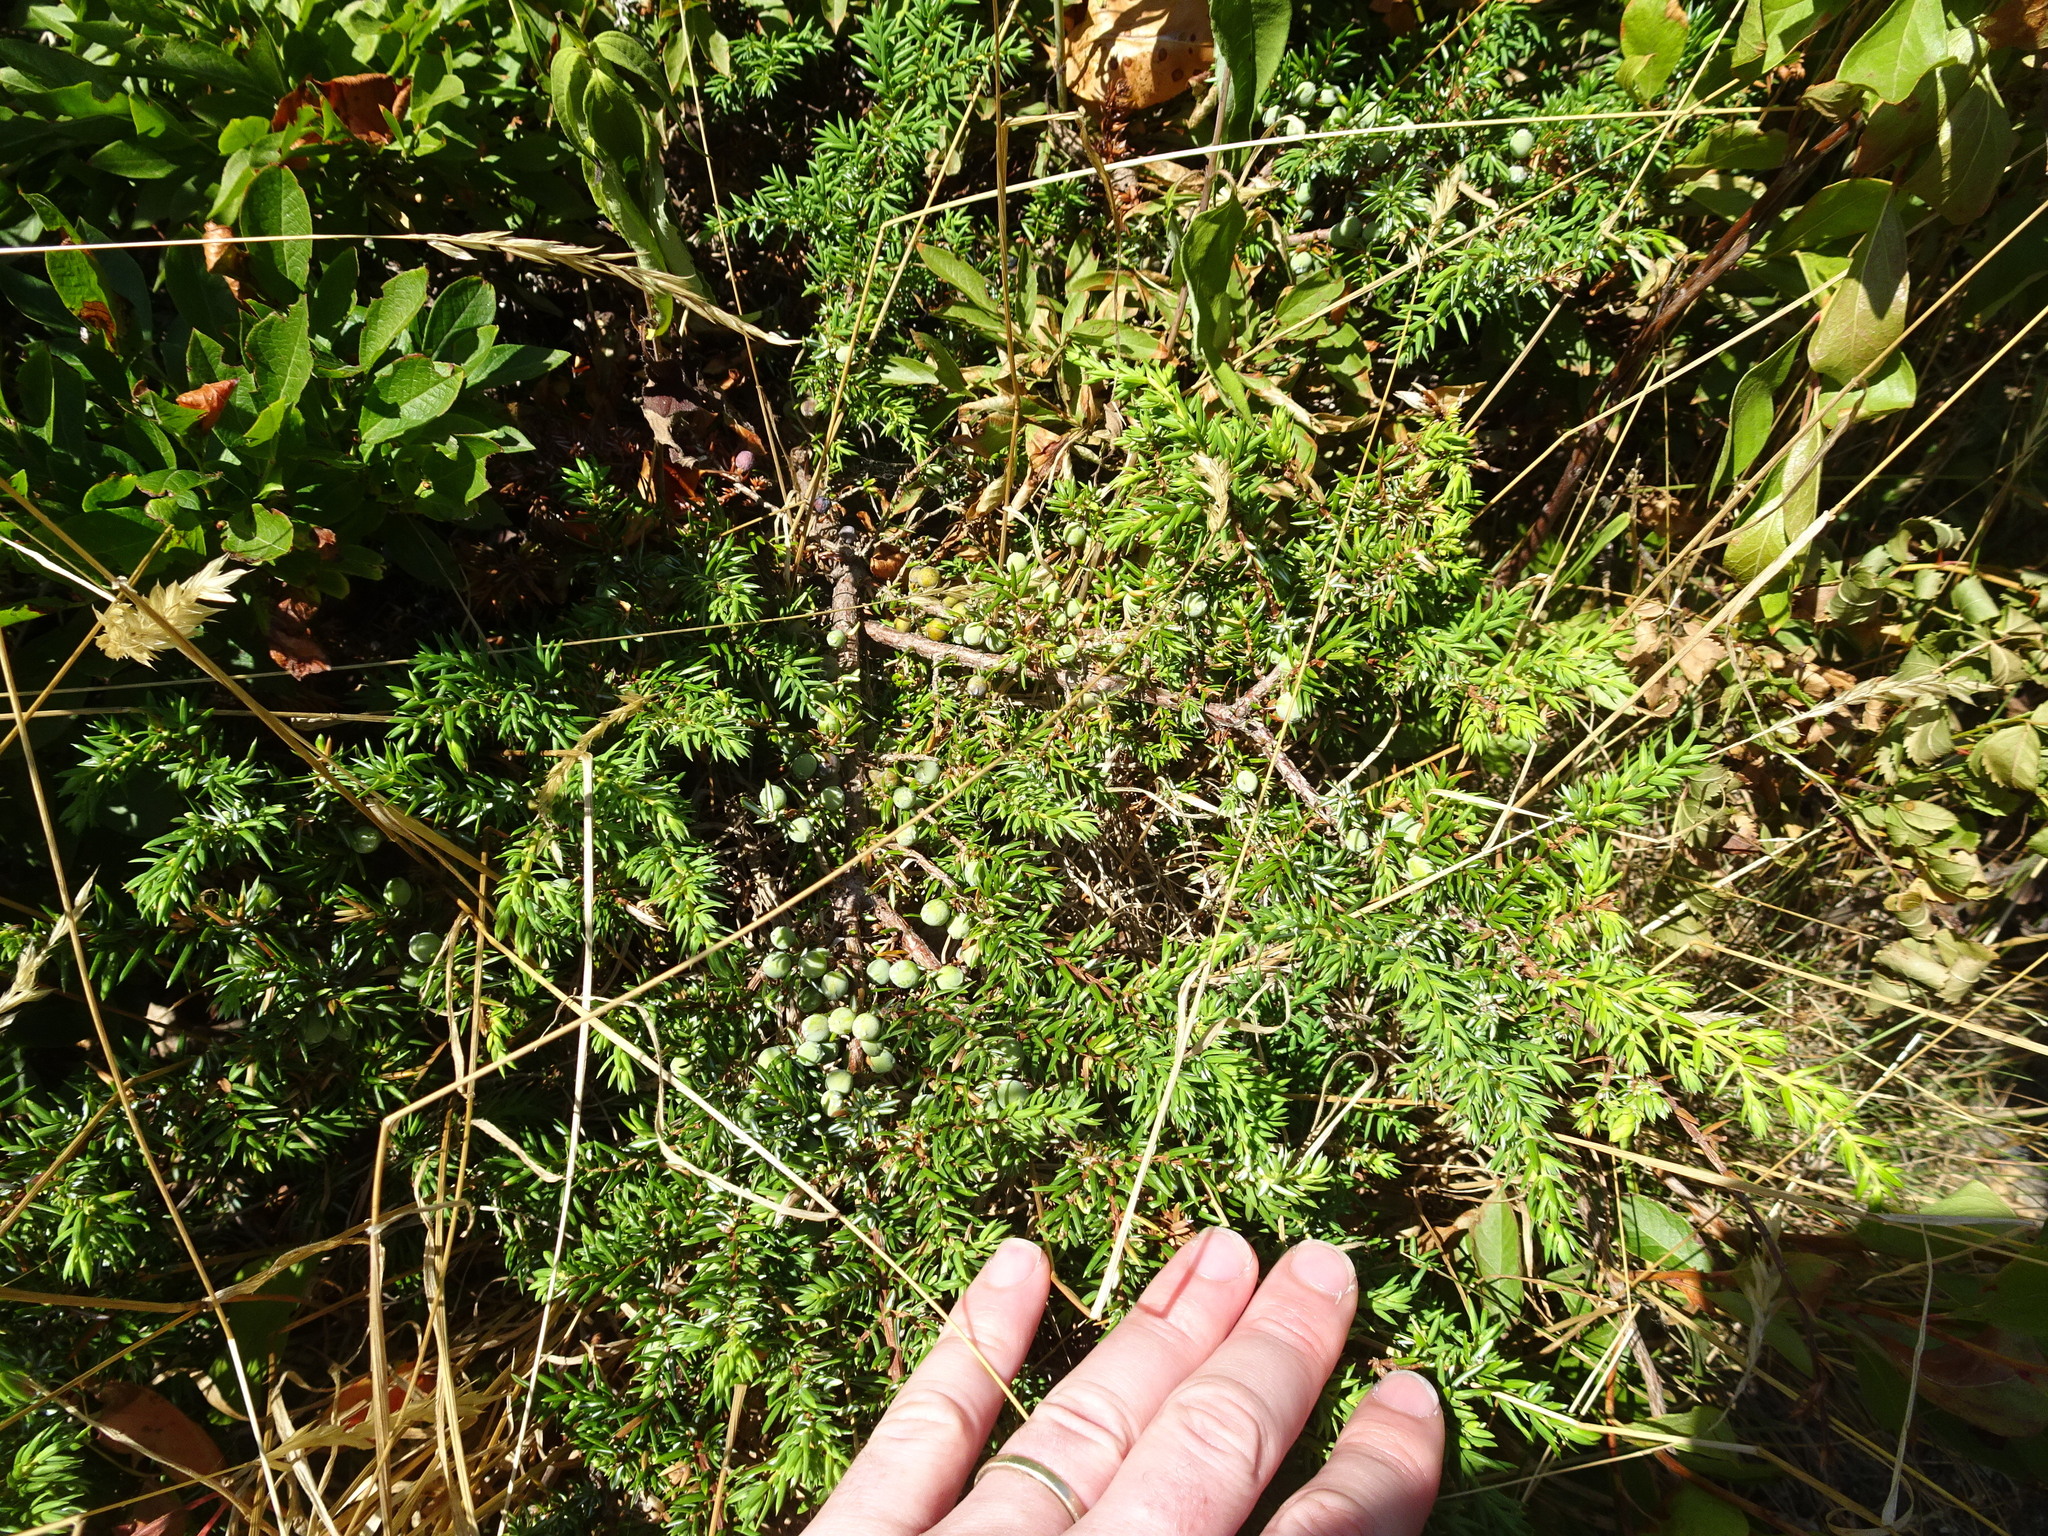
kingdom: Plantae
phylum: Tracheophyta
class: Pinopsida
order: Pinales
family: Cupressaceae
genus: Juniperus
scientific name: Juniperus communis
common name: Common juniper
